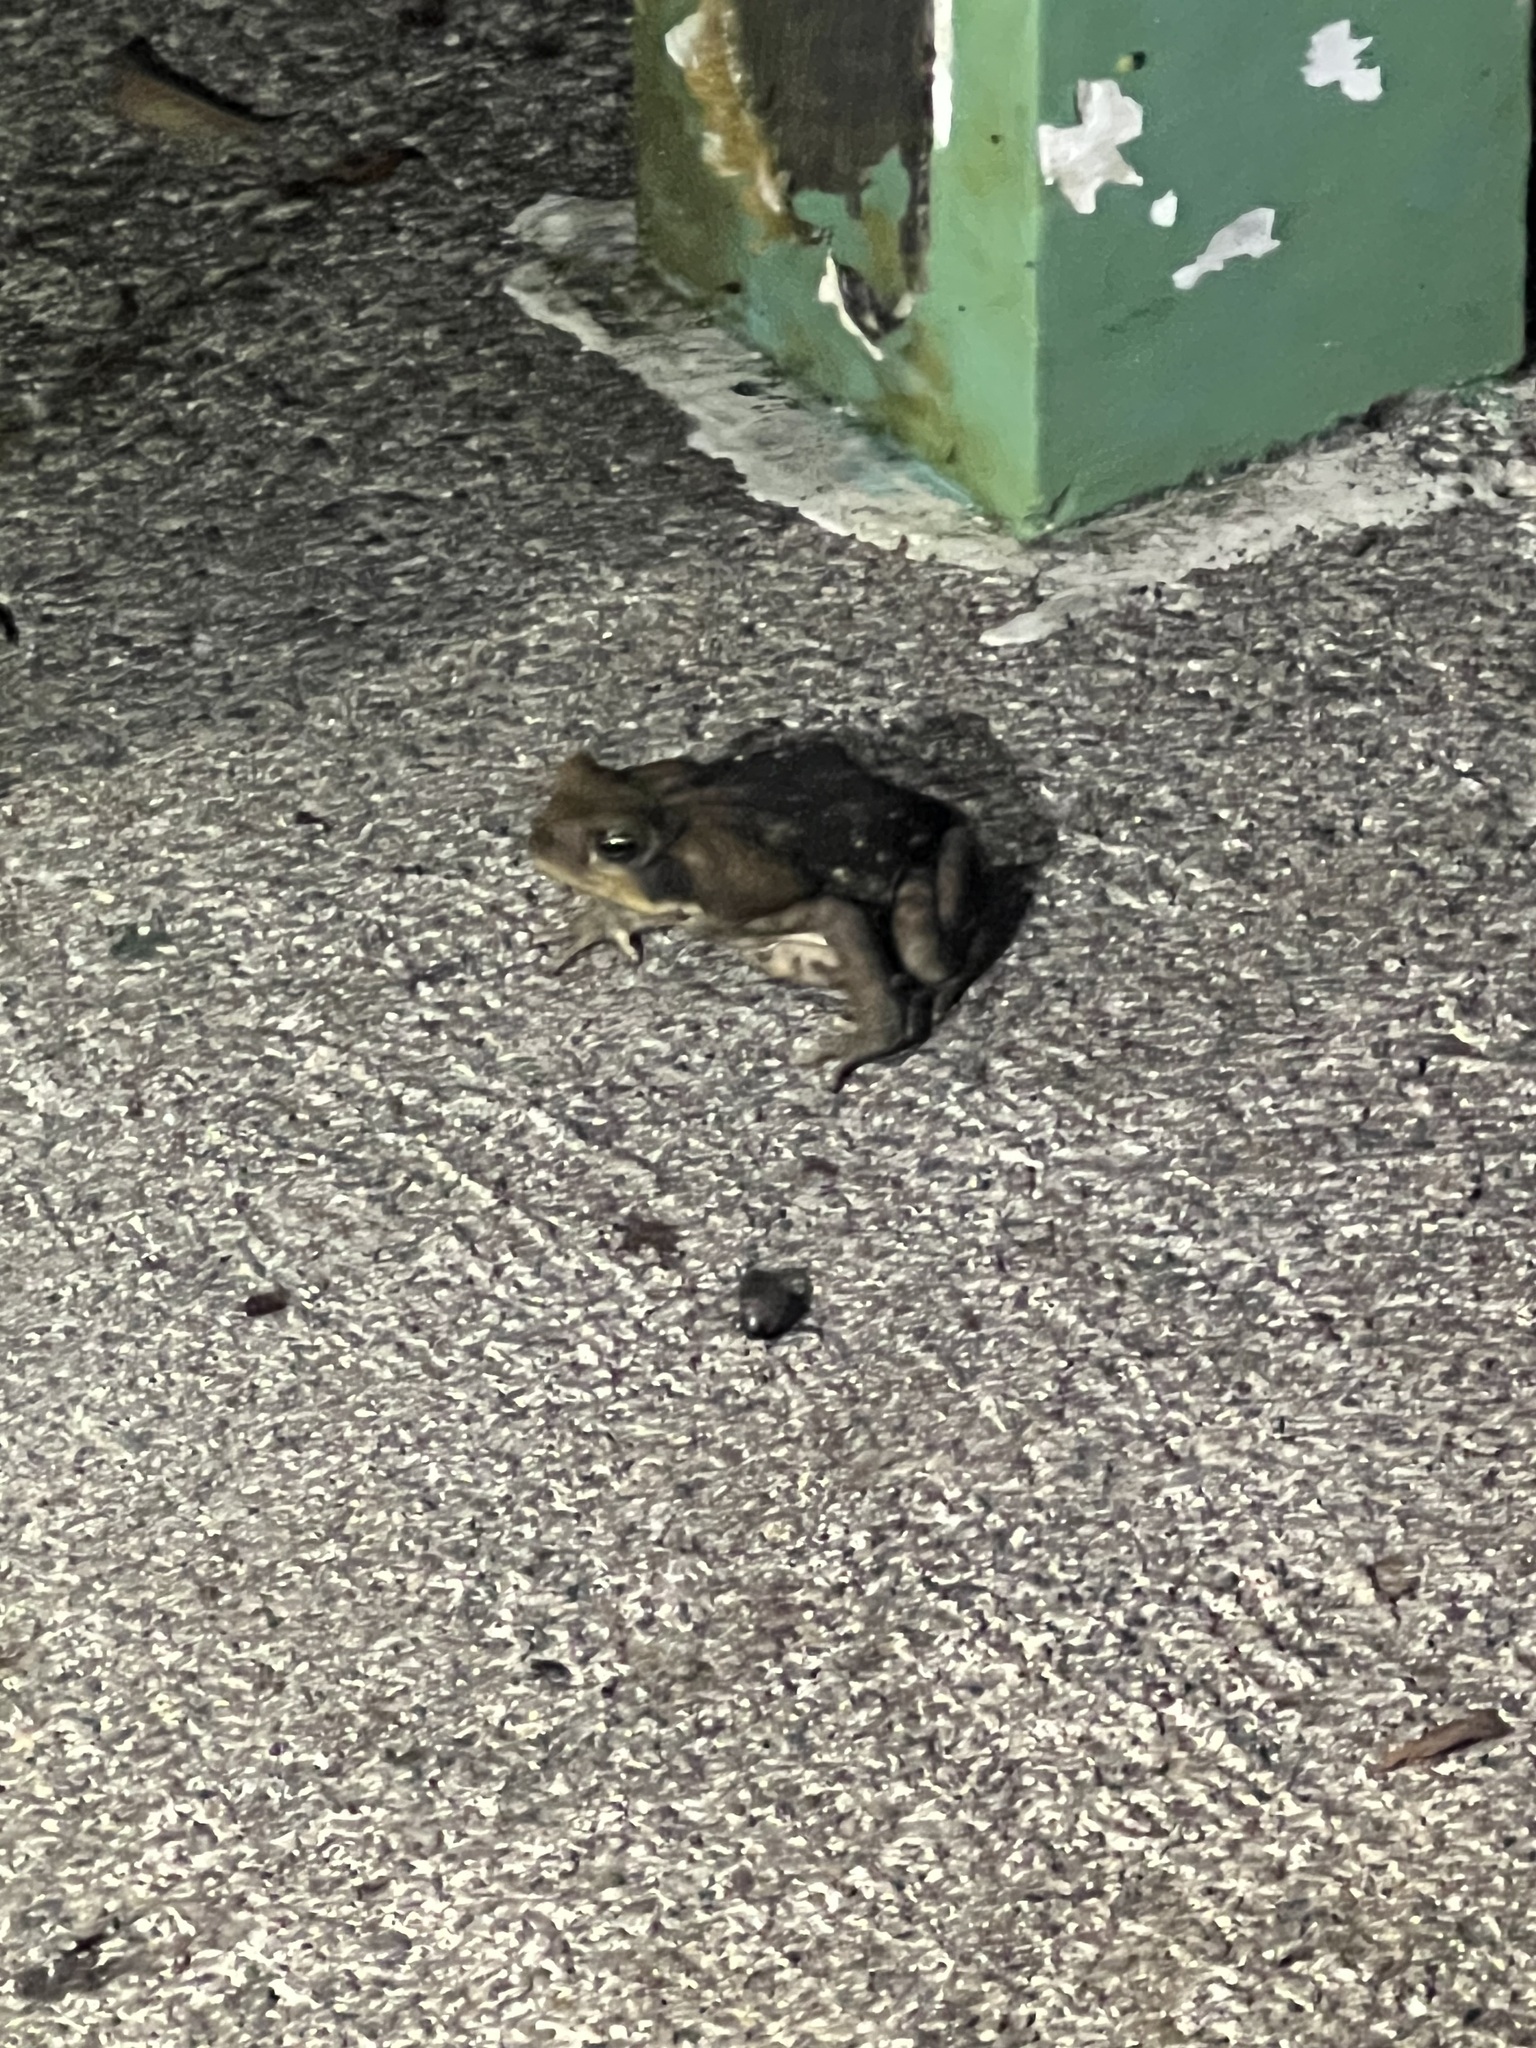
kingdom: Animalia
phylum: Chordata
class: Amphibia
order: Anura
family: Bufonidae
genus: Rhinella
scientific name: Rhinella horribilis
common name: Mesoamerican cane toad
